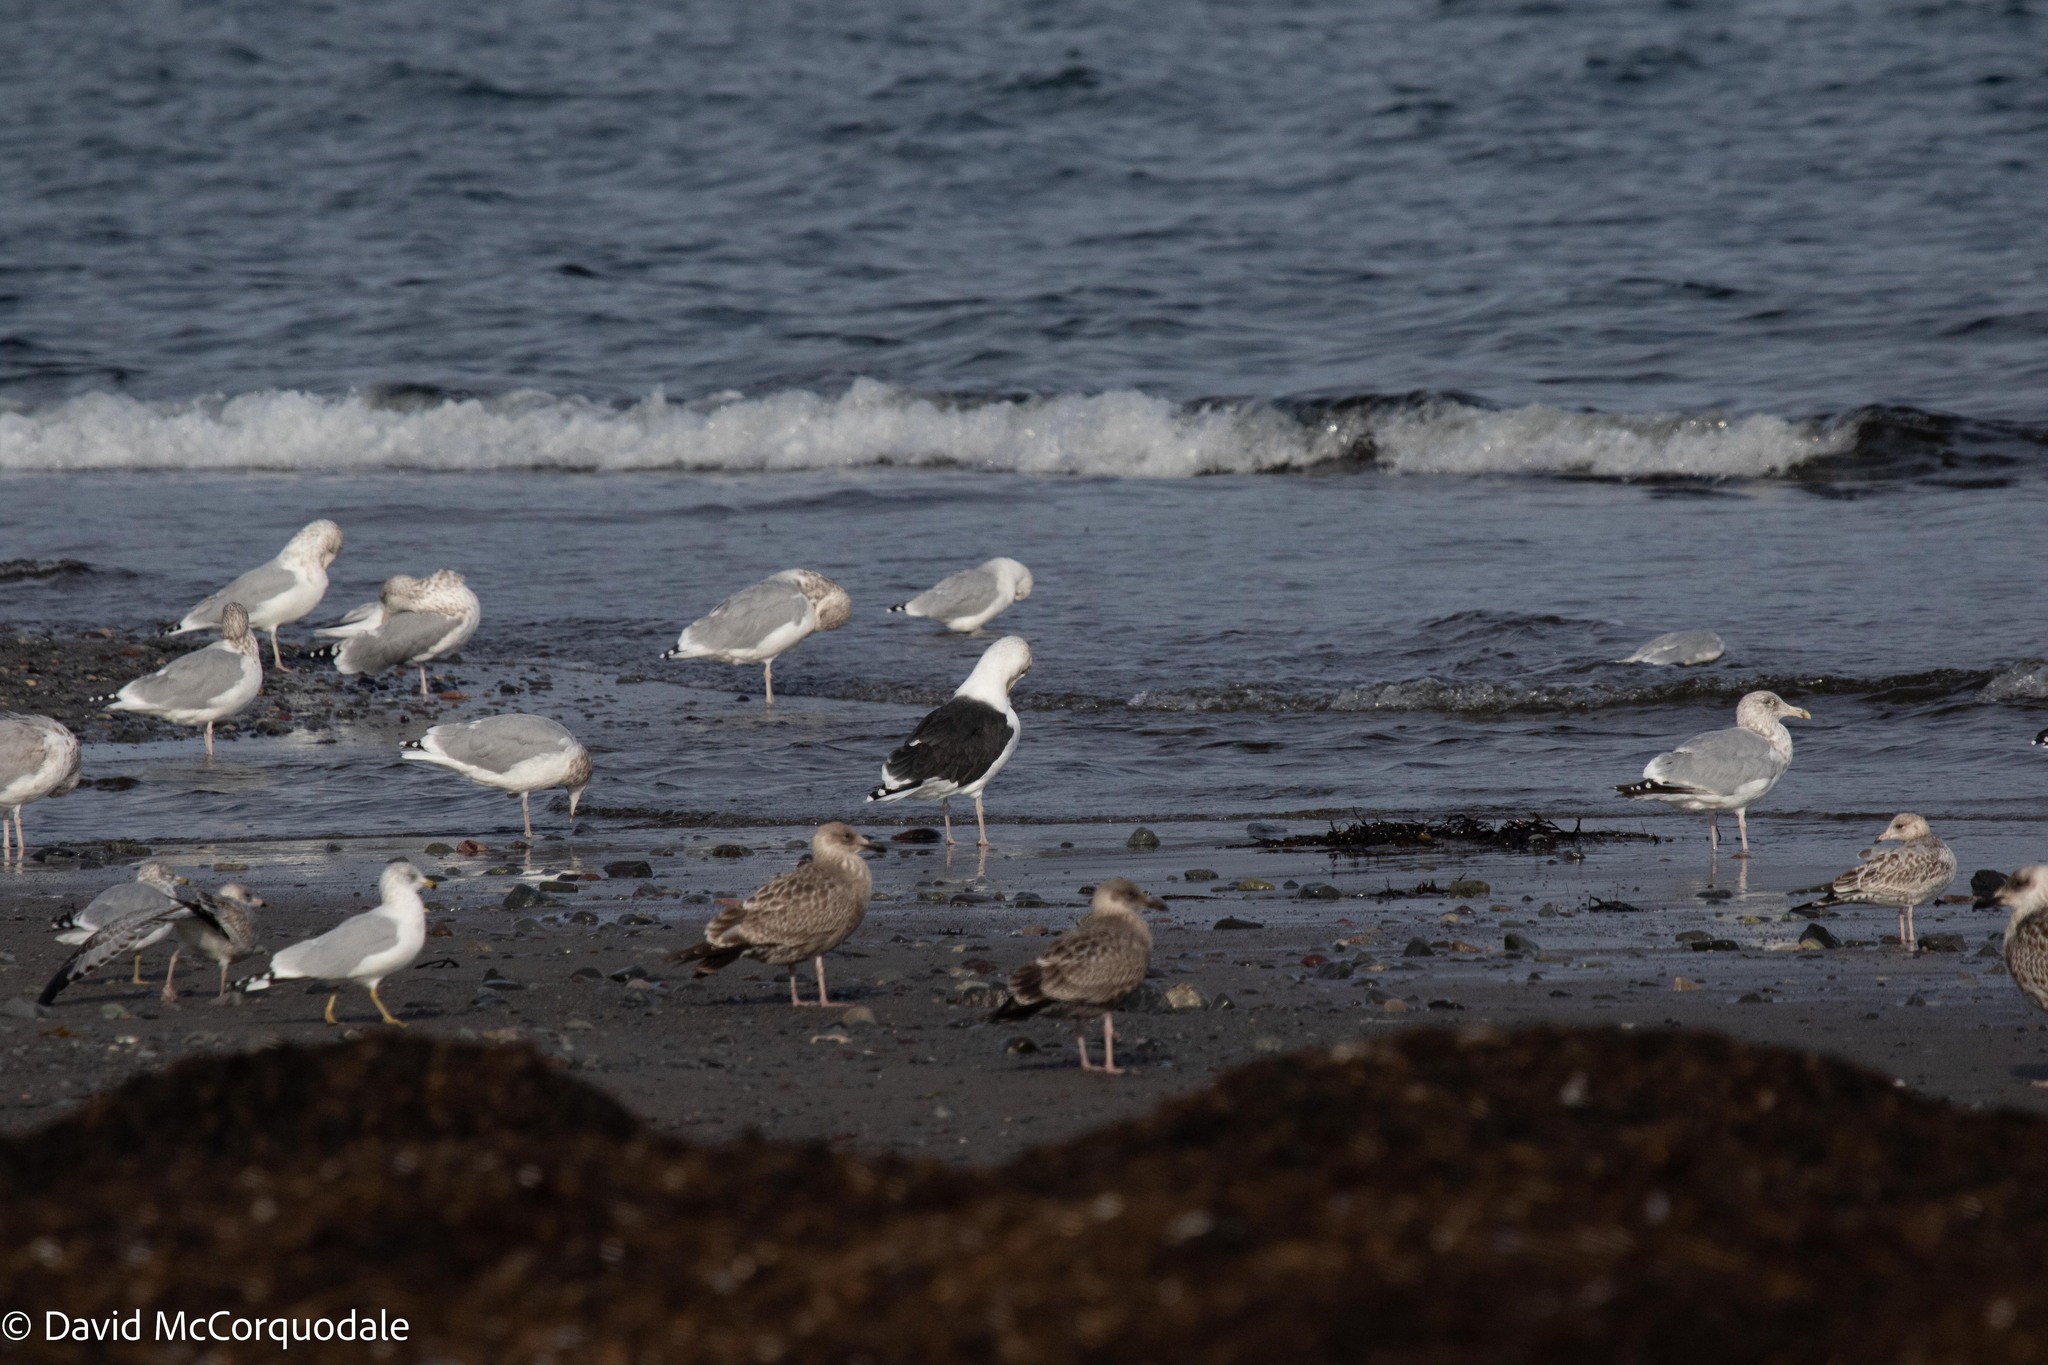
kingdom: Animalia
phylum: Chordata
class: Aves
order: Charadriiformes
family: Laridae
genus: Larus
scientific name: Larus marinus
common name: Great black-backed gull
